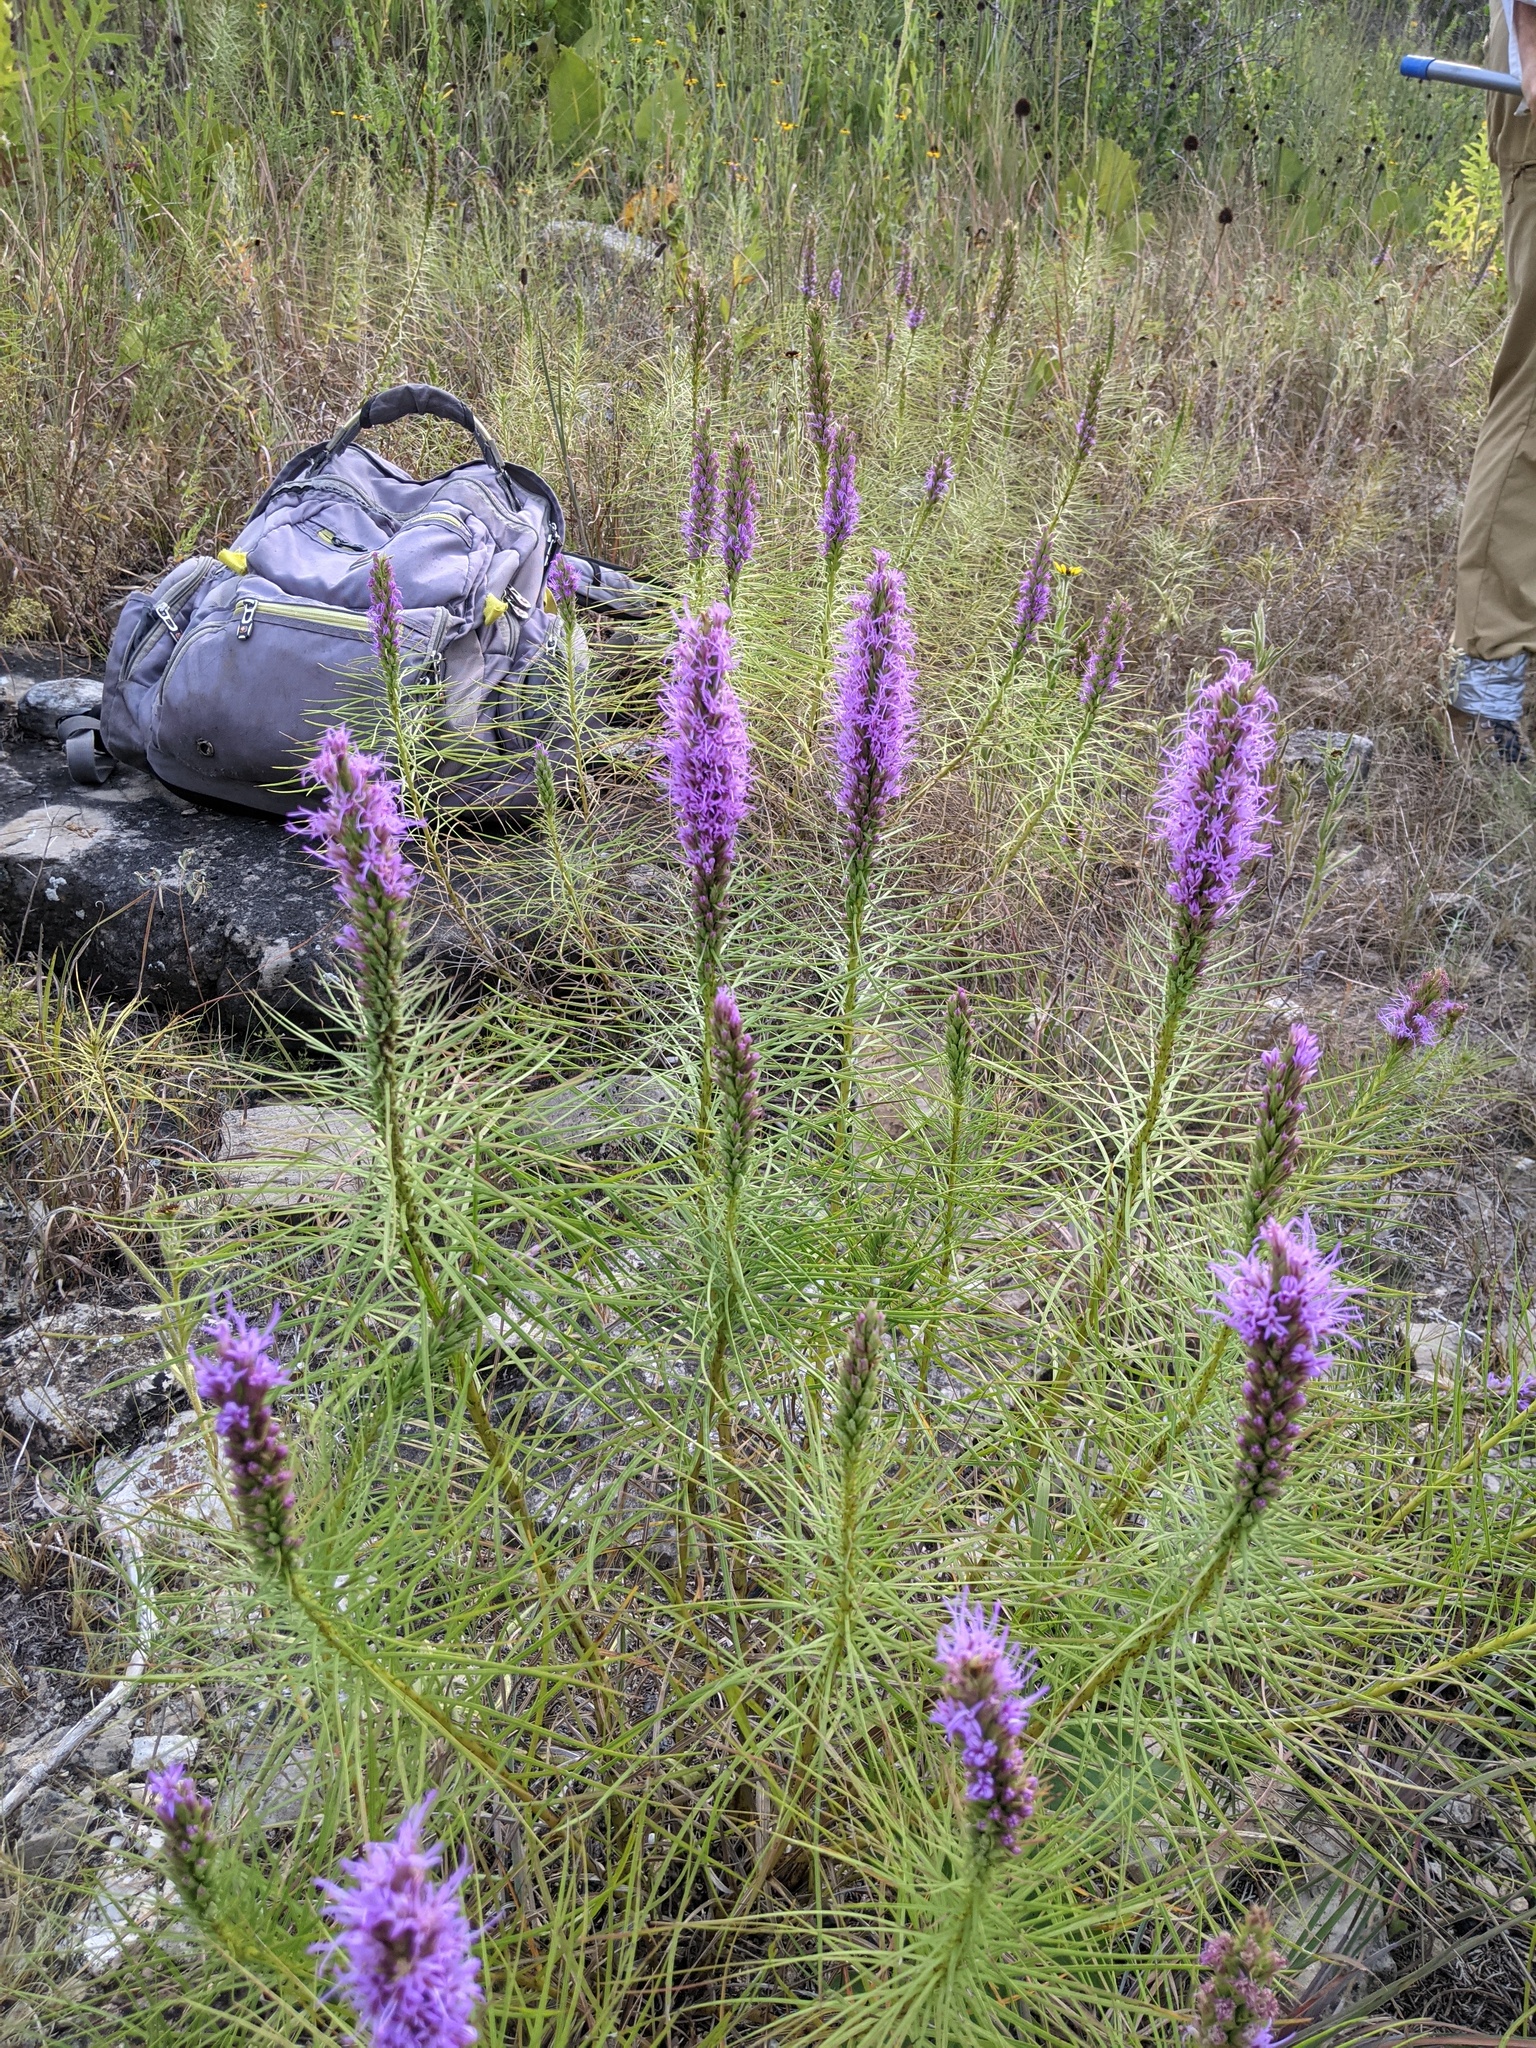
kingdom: Plantae
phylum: Tracheophyta
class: Magnoliopsida
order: Asterales
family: Asteraceae
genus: Liatris
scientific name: Liatris punctata
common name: Dotted gayfeather
